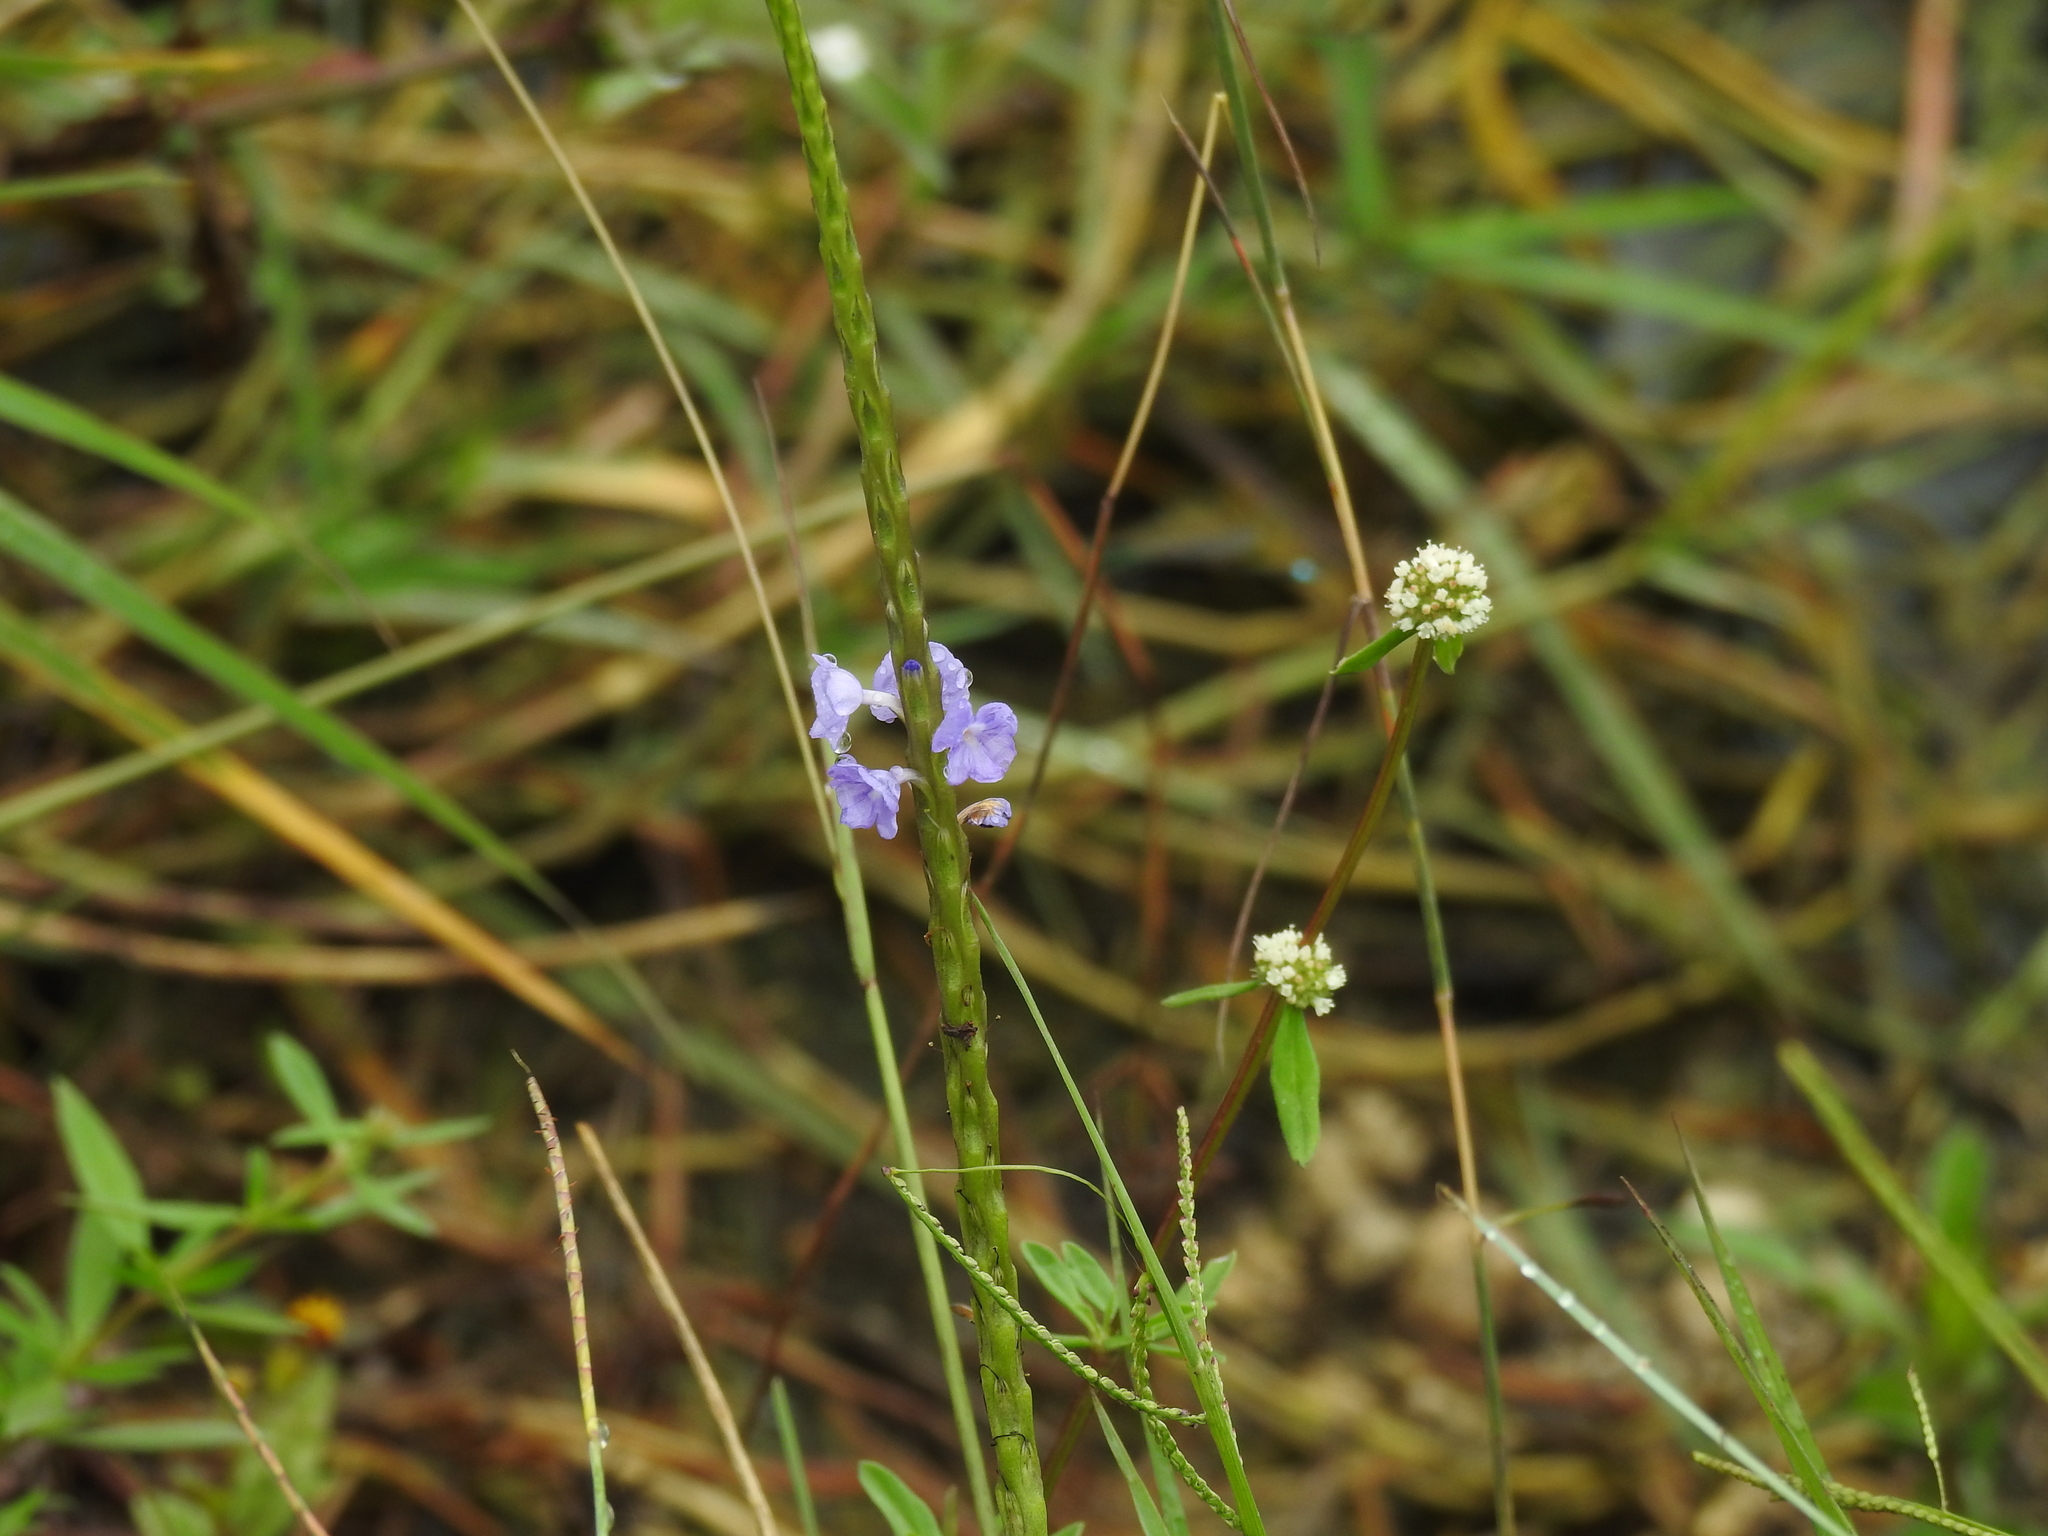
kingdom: Plantae
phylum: Tracheophyta
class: Magnoliopsida
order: Lamiales
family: Verbenaceae
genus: Stachytarpheta
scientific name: Stachytarpheta jamaicensis
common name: Light-blue snakeweed
